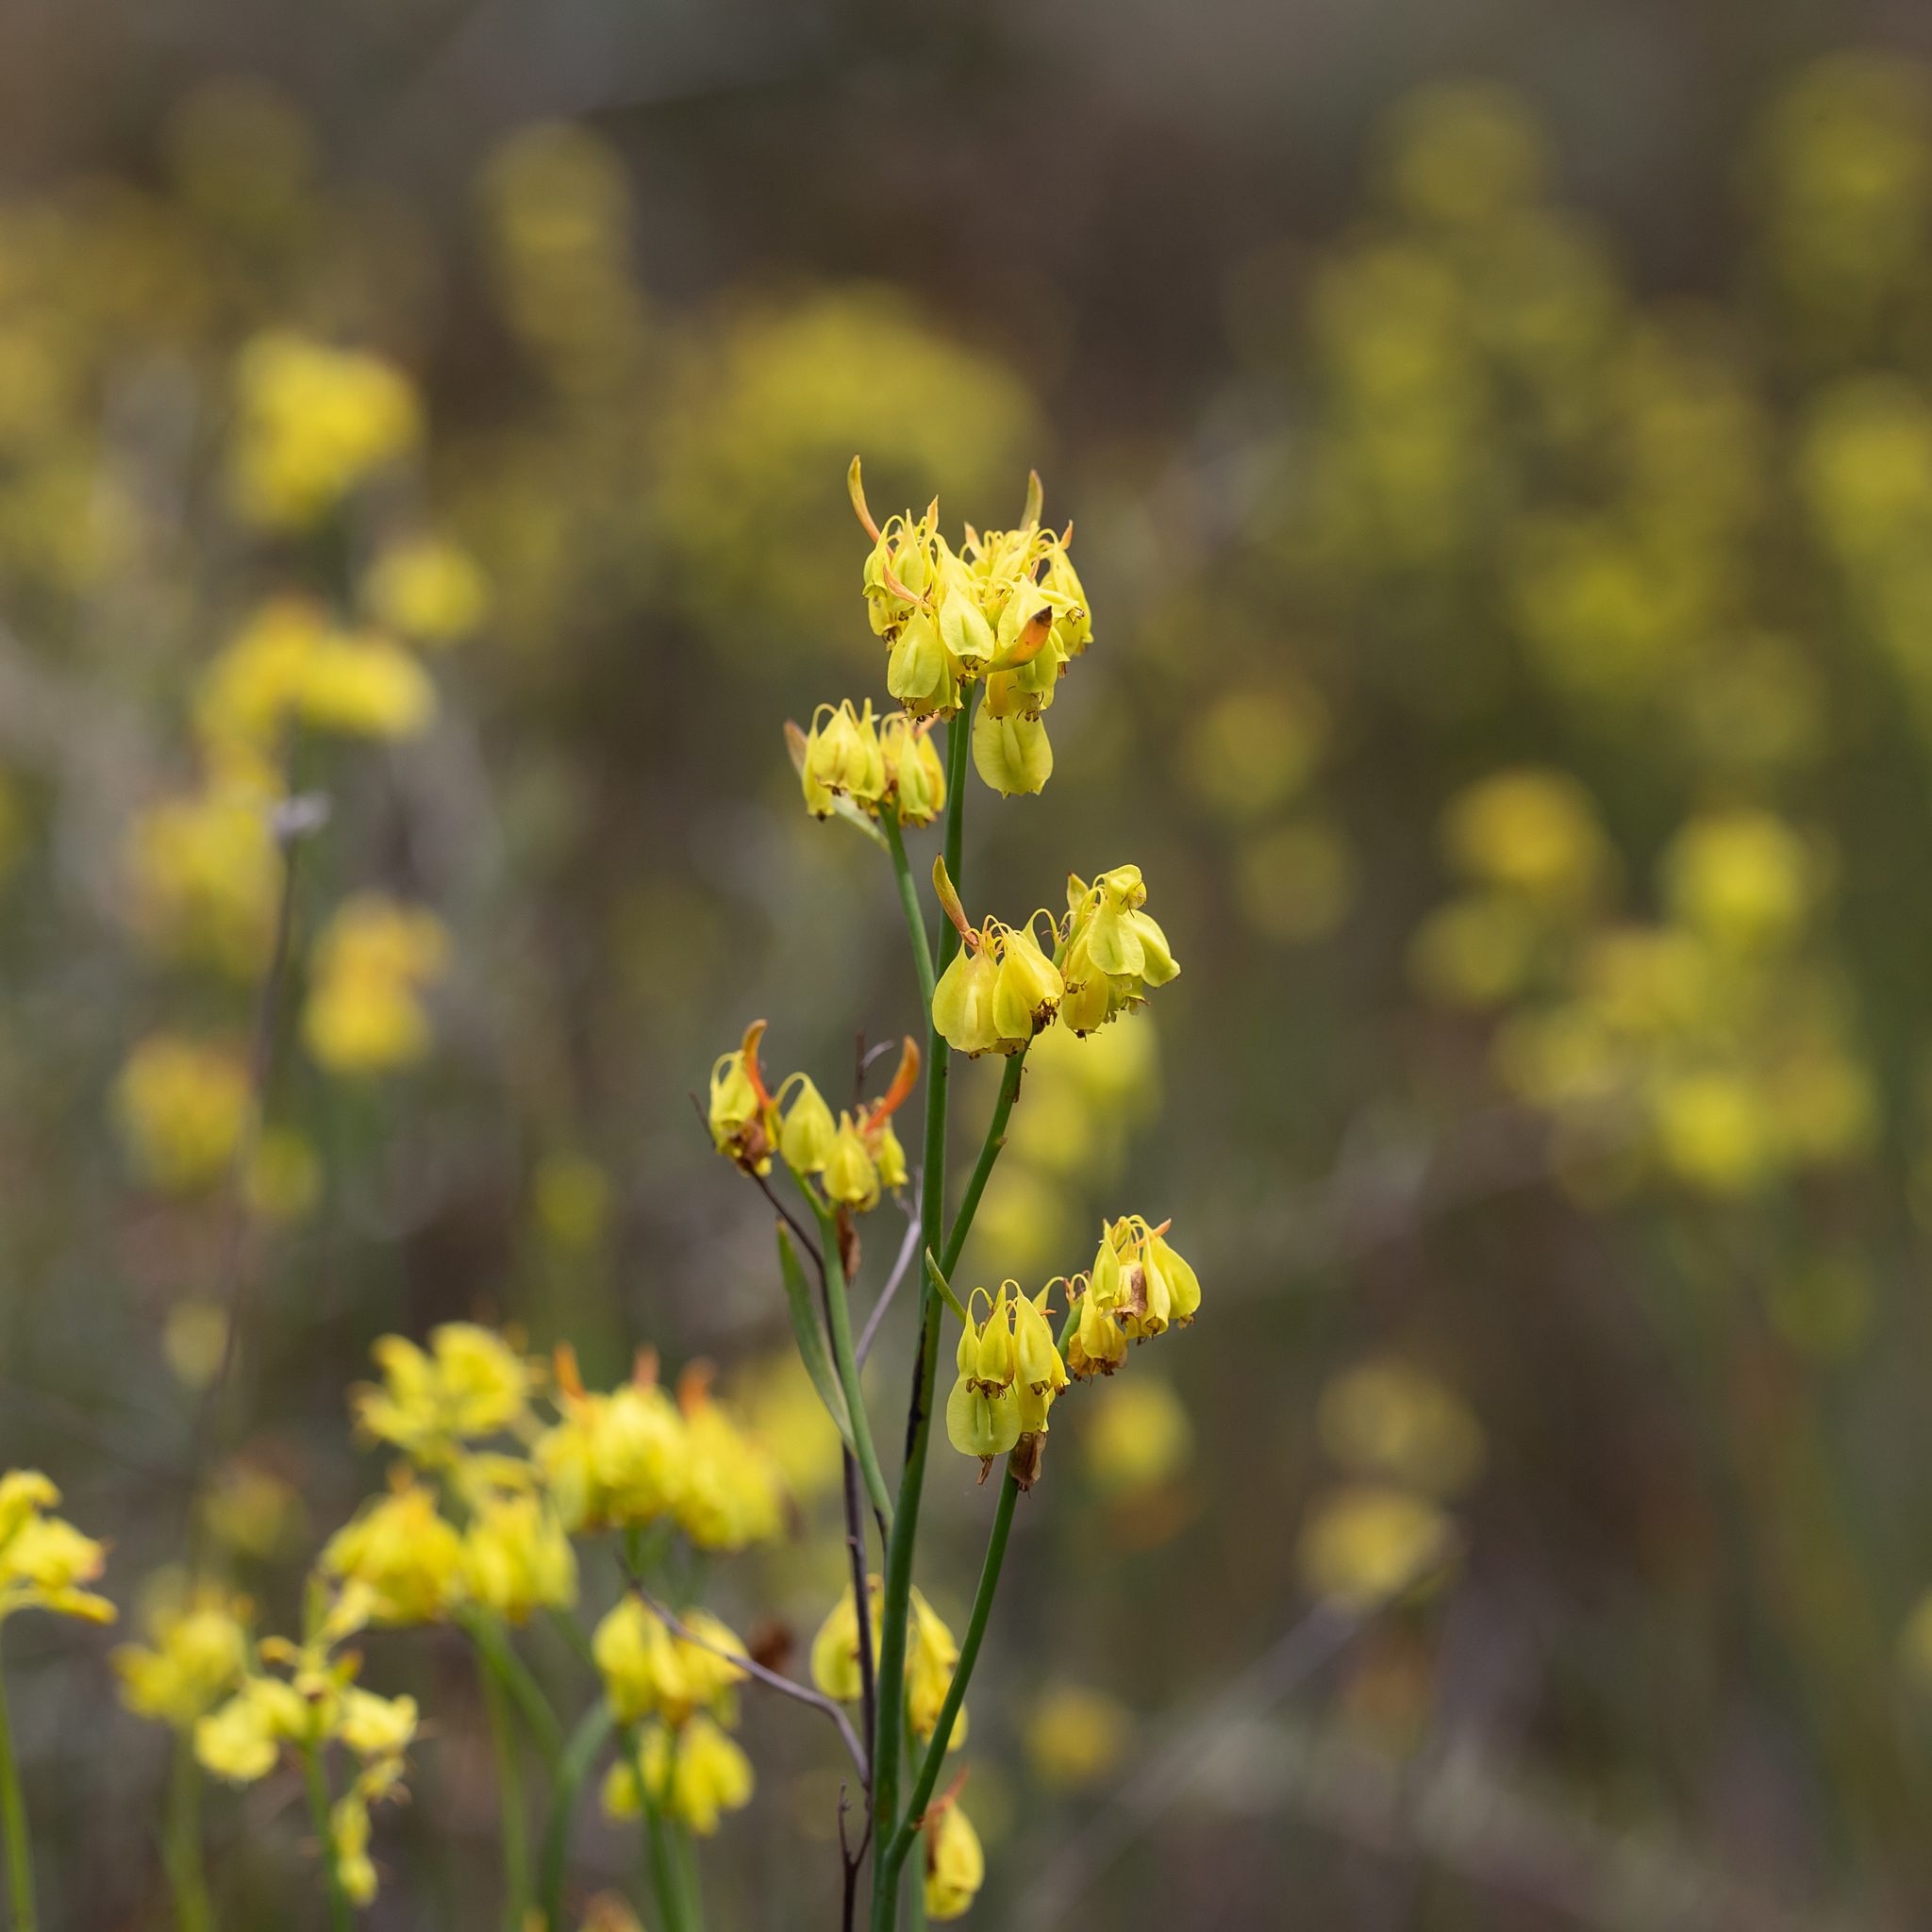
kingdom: Plantae
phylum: Tracheophyta
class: Magnoliopsida
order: Saxifragales
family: Haloragaceae
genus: Glischrocaryon
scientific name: Glischrocaryon behrii
